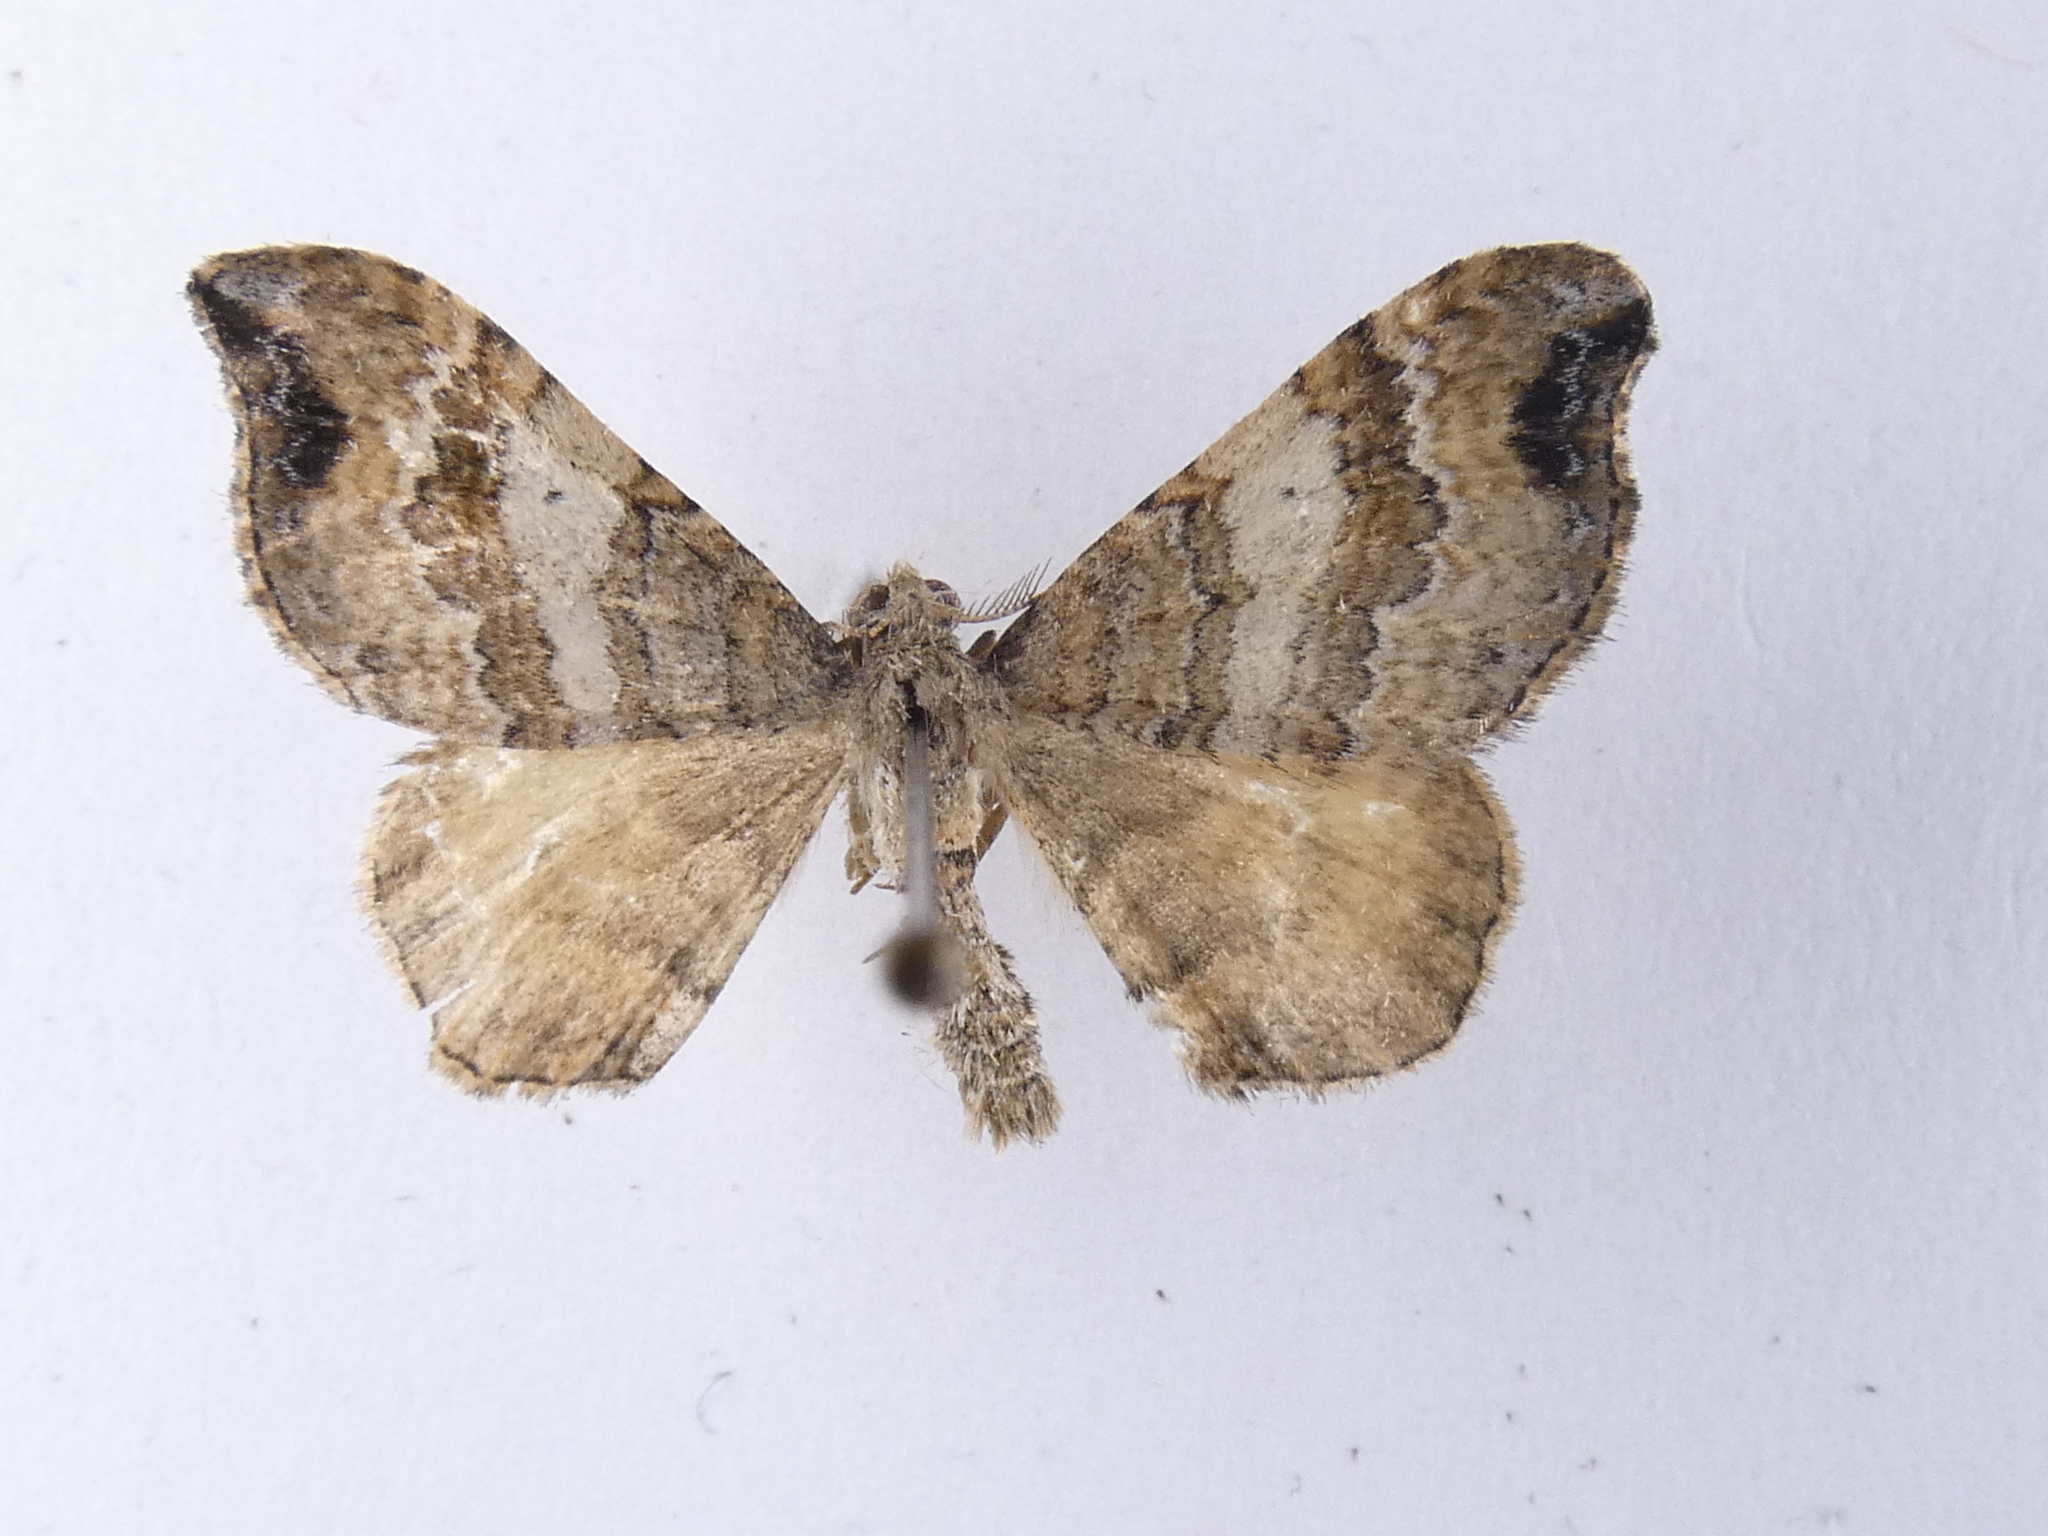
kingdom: Animalia
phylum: Arthropoda
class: Insecta
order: Lepidoptera
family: Geometridae
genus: Homodotis
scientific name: Homodotis megaspilata
